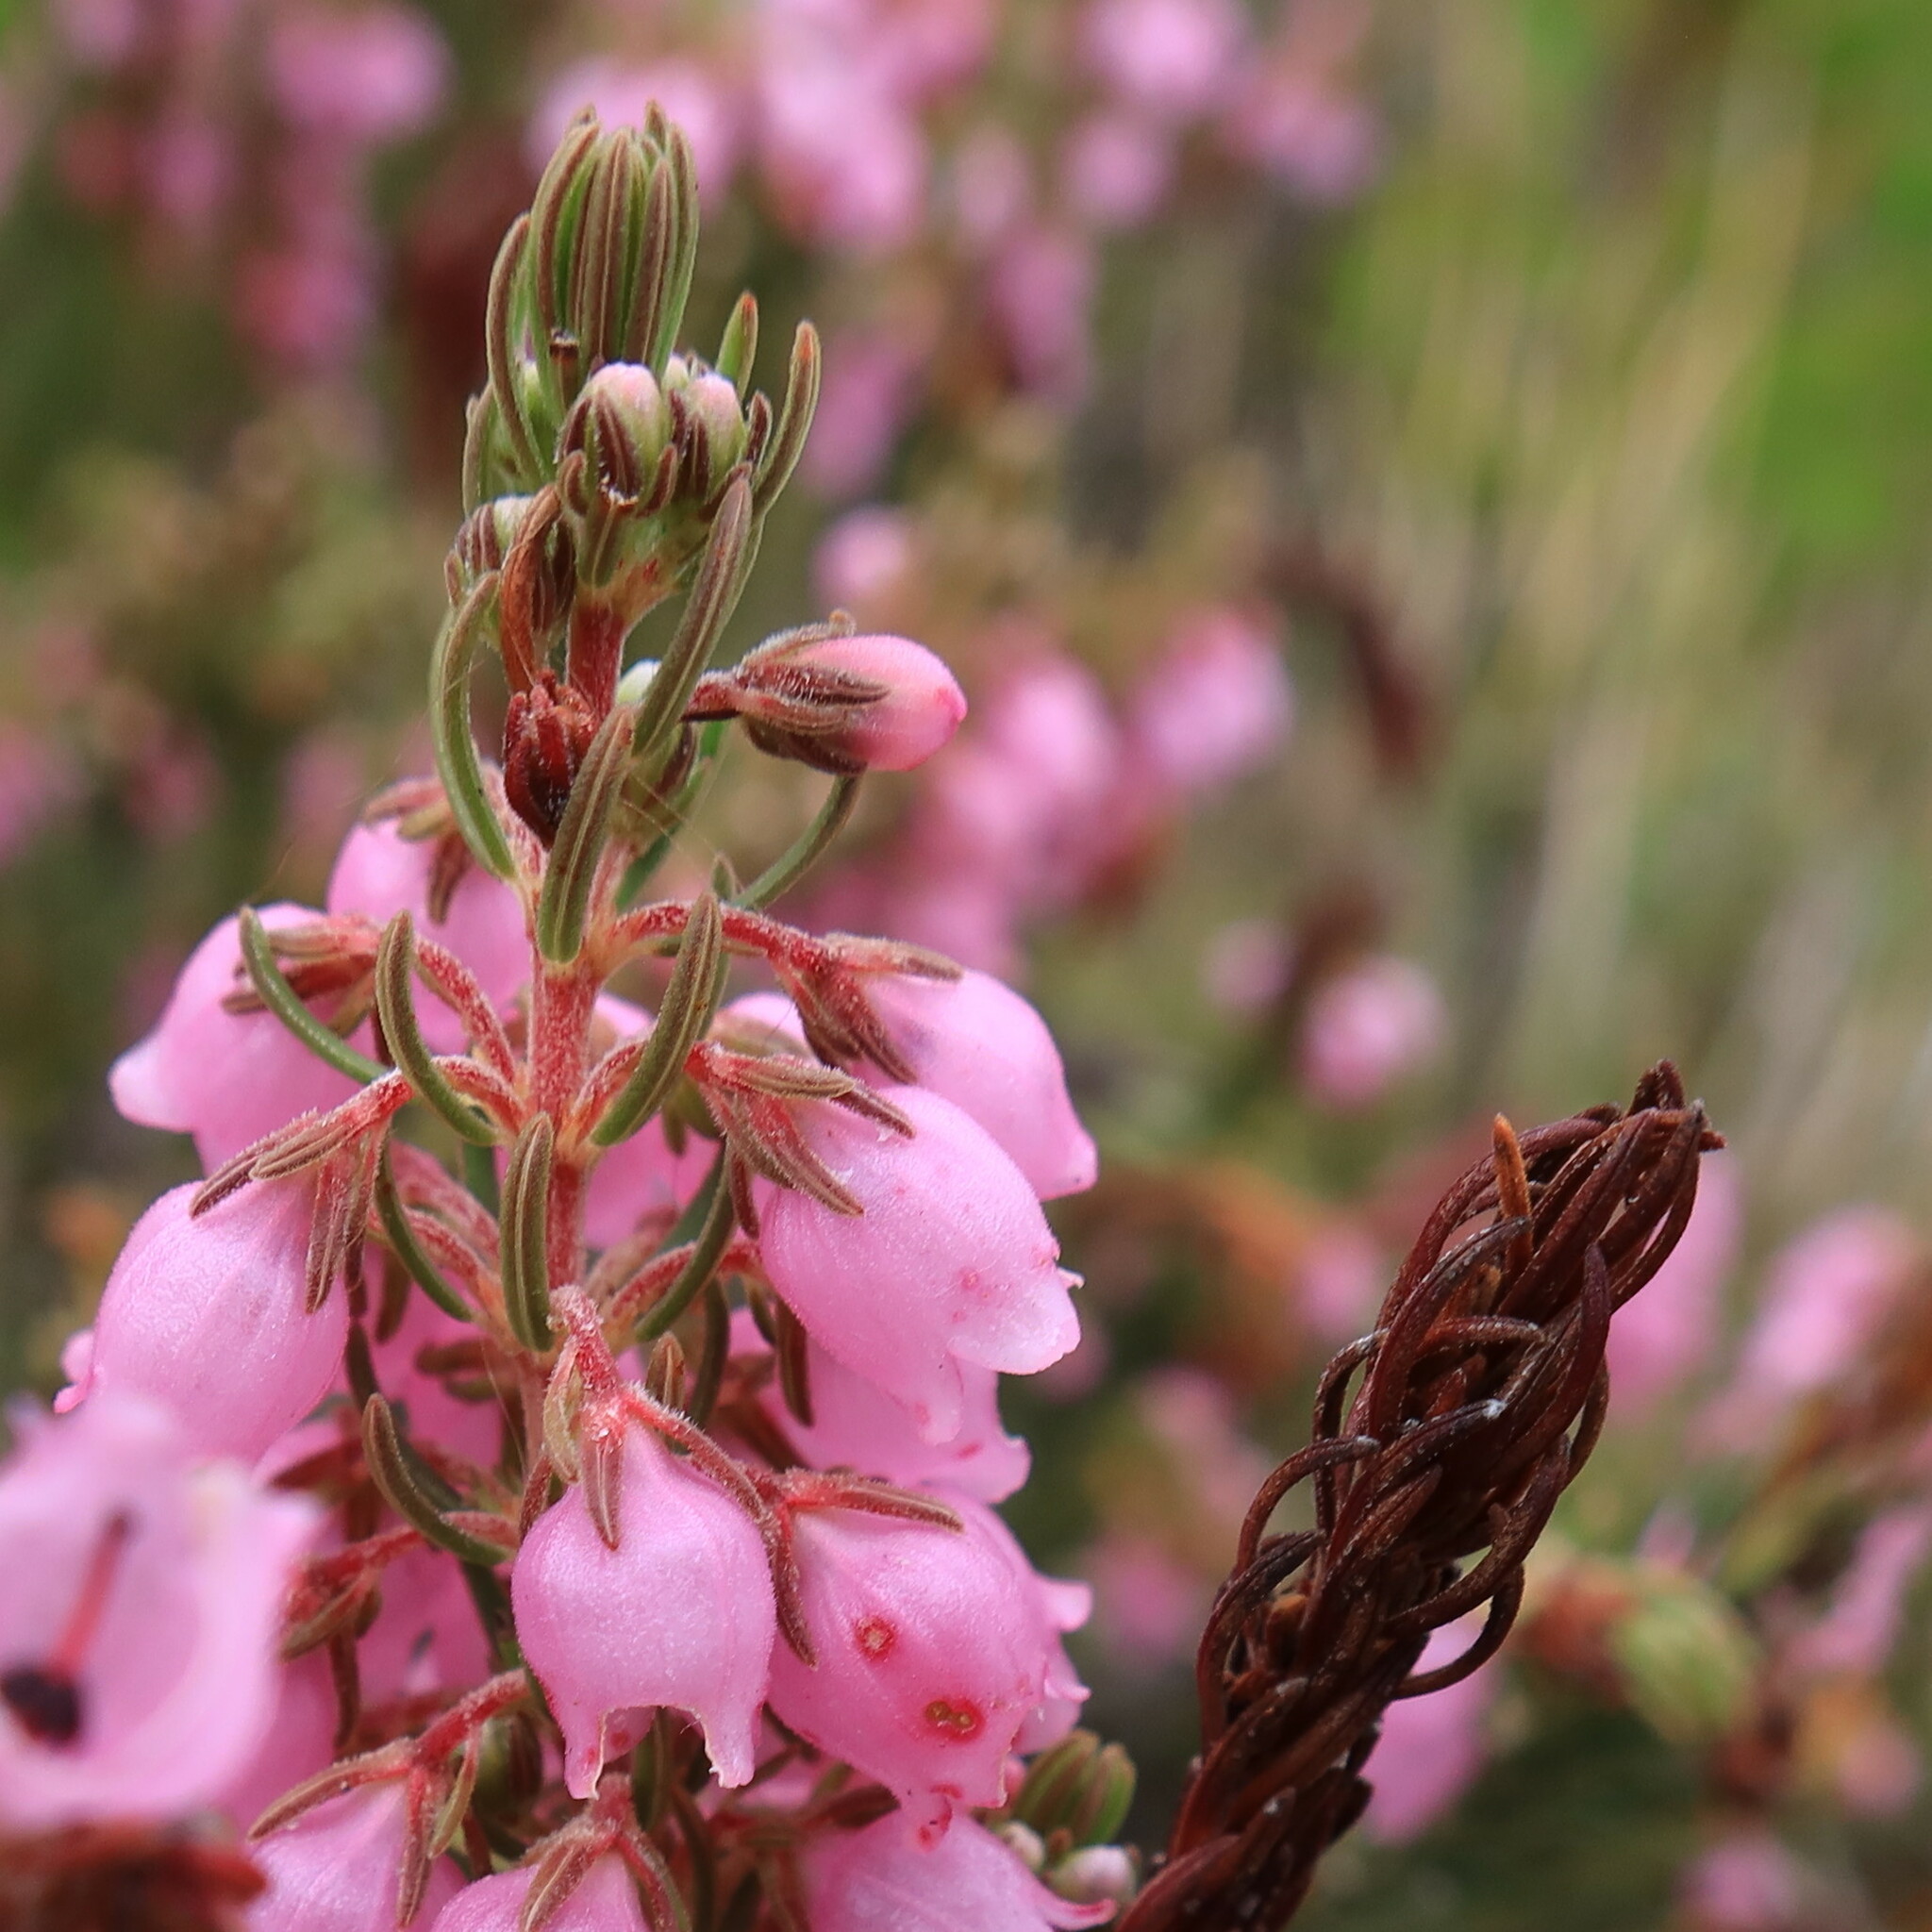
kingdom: Plantae
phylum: Tracheophyta
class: Magnoliopsida
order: Ericales
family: Ericaceae
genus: Erica
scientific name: Erica viscaria
